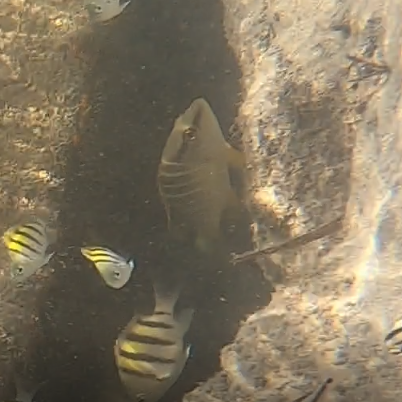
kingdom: Animalia
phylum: Chordata
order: Perciformes
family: Lutjanidae
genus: Lutjanus
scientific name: Lutjanus apodus
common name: Schoolmaster
